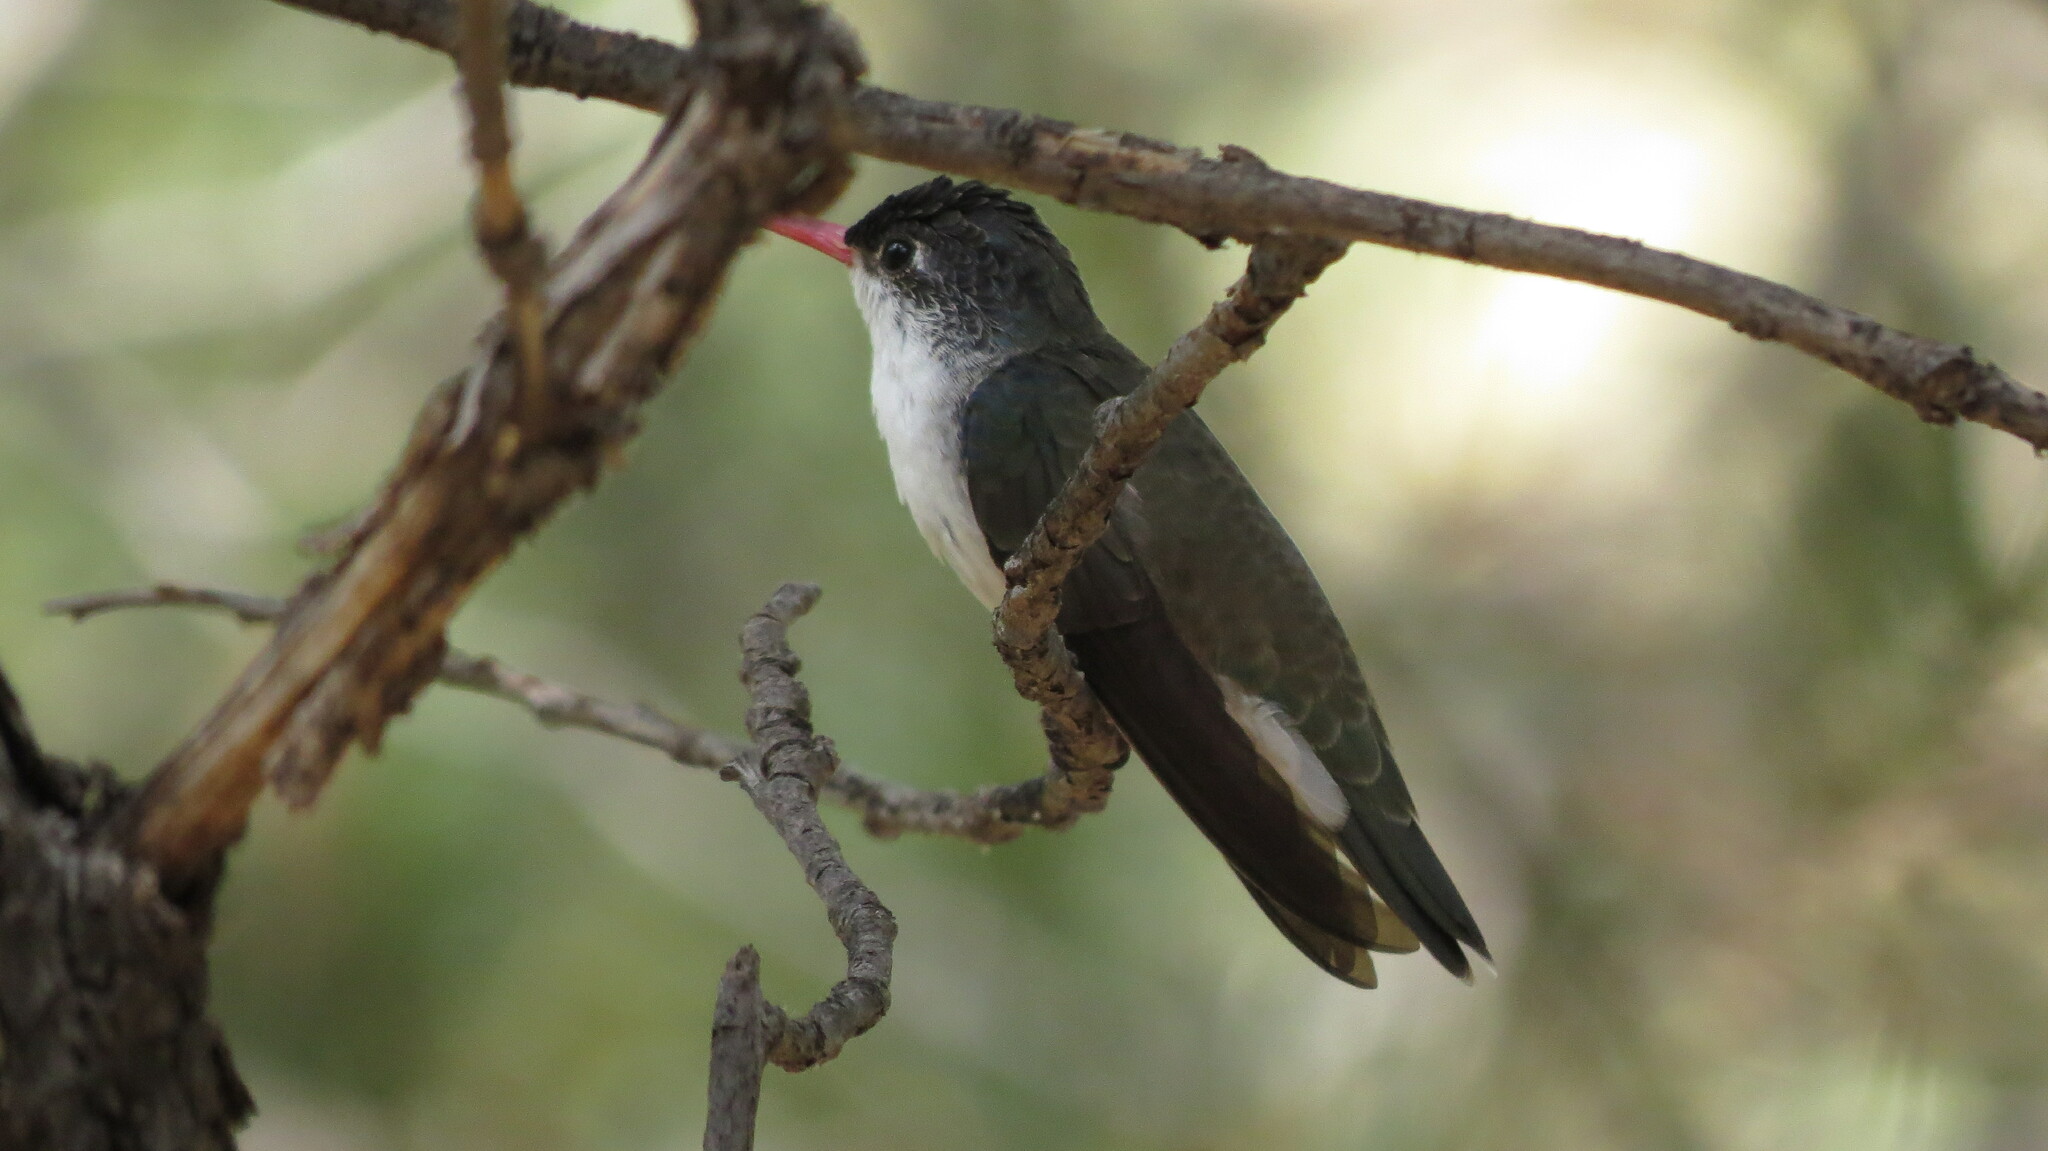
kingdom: Animalia
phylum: Chordata
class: Aves
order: Apodiformes
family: Trochilidae
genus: Leucolia
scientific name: Leucolia violiceps
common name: Violet-crowned hummingbird
